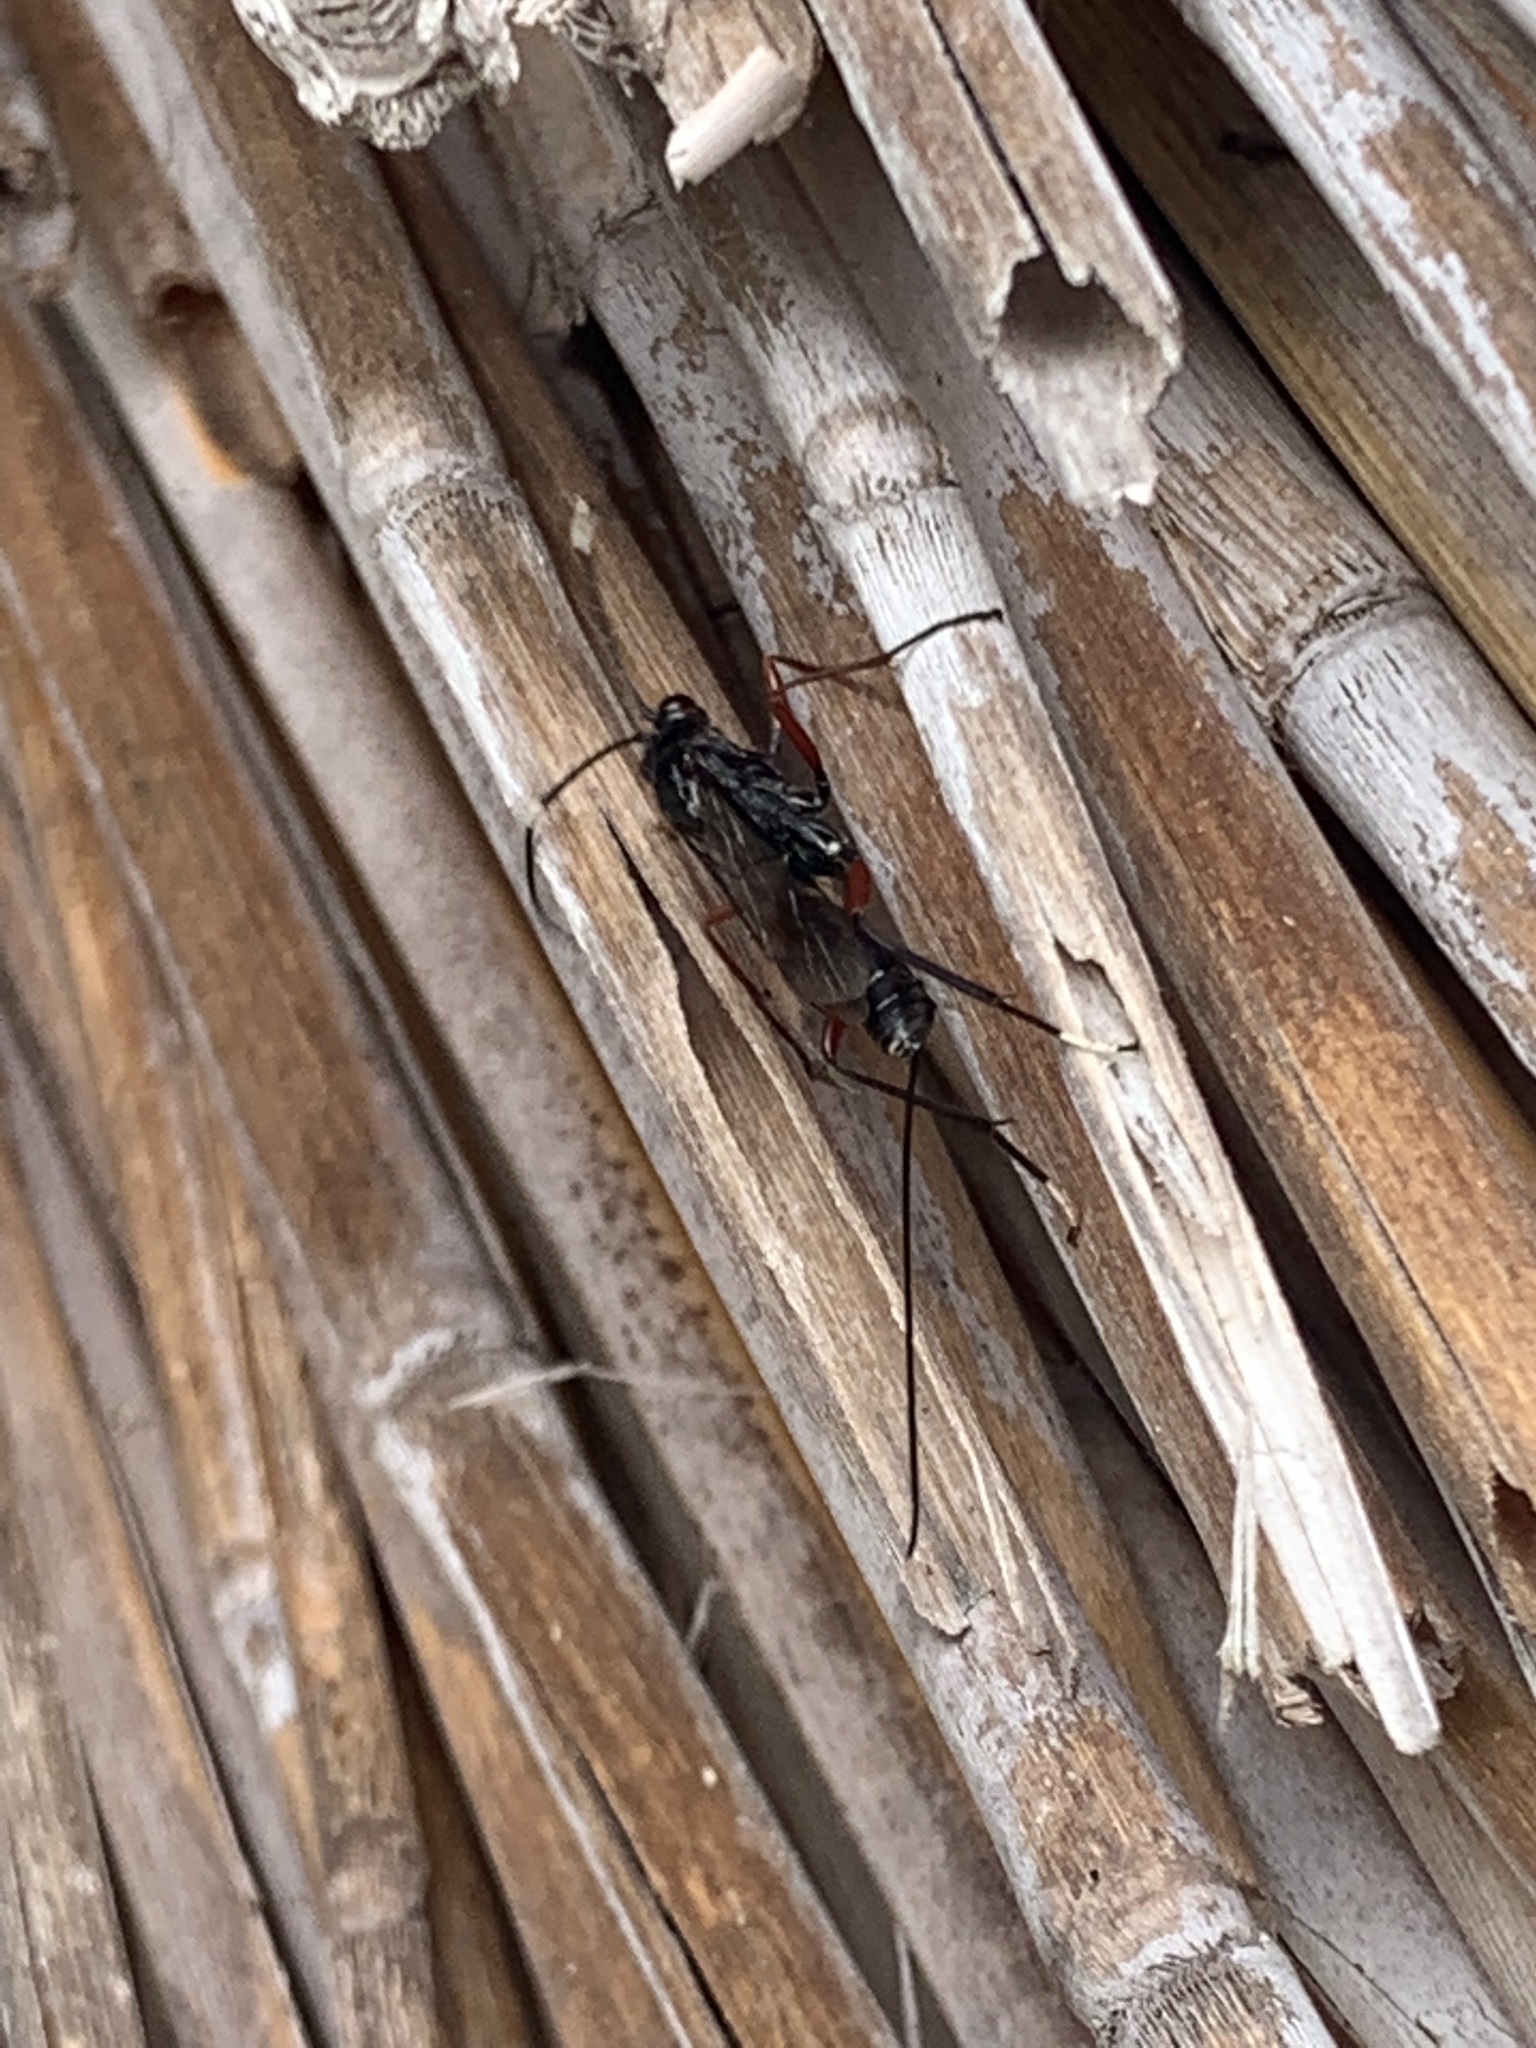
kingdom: Animalia
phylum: Arthropoda
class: Insecta
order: Hymenoptera
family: Ichneumonidae
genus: Stenarella
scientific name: Stenarella domator
